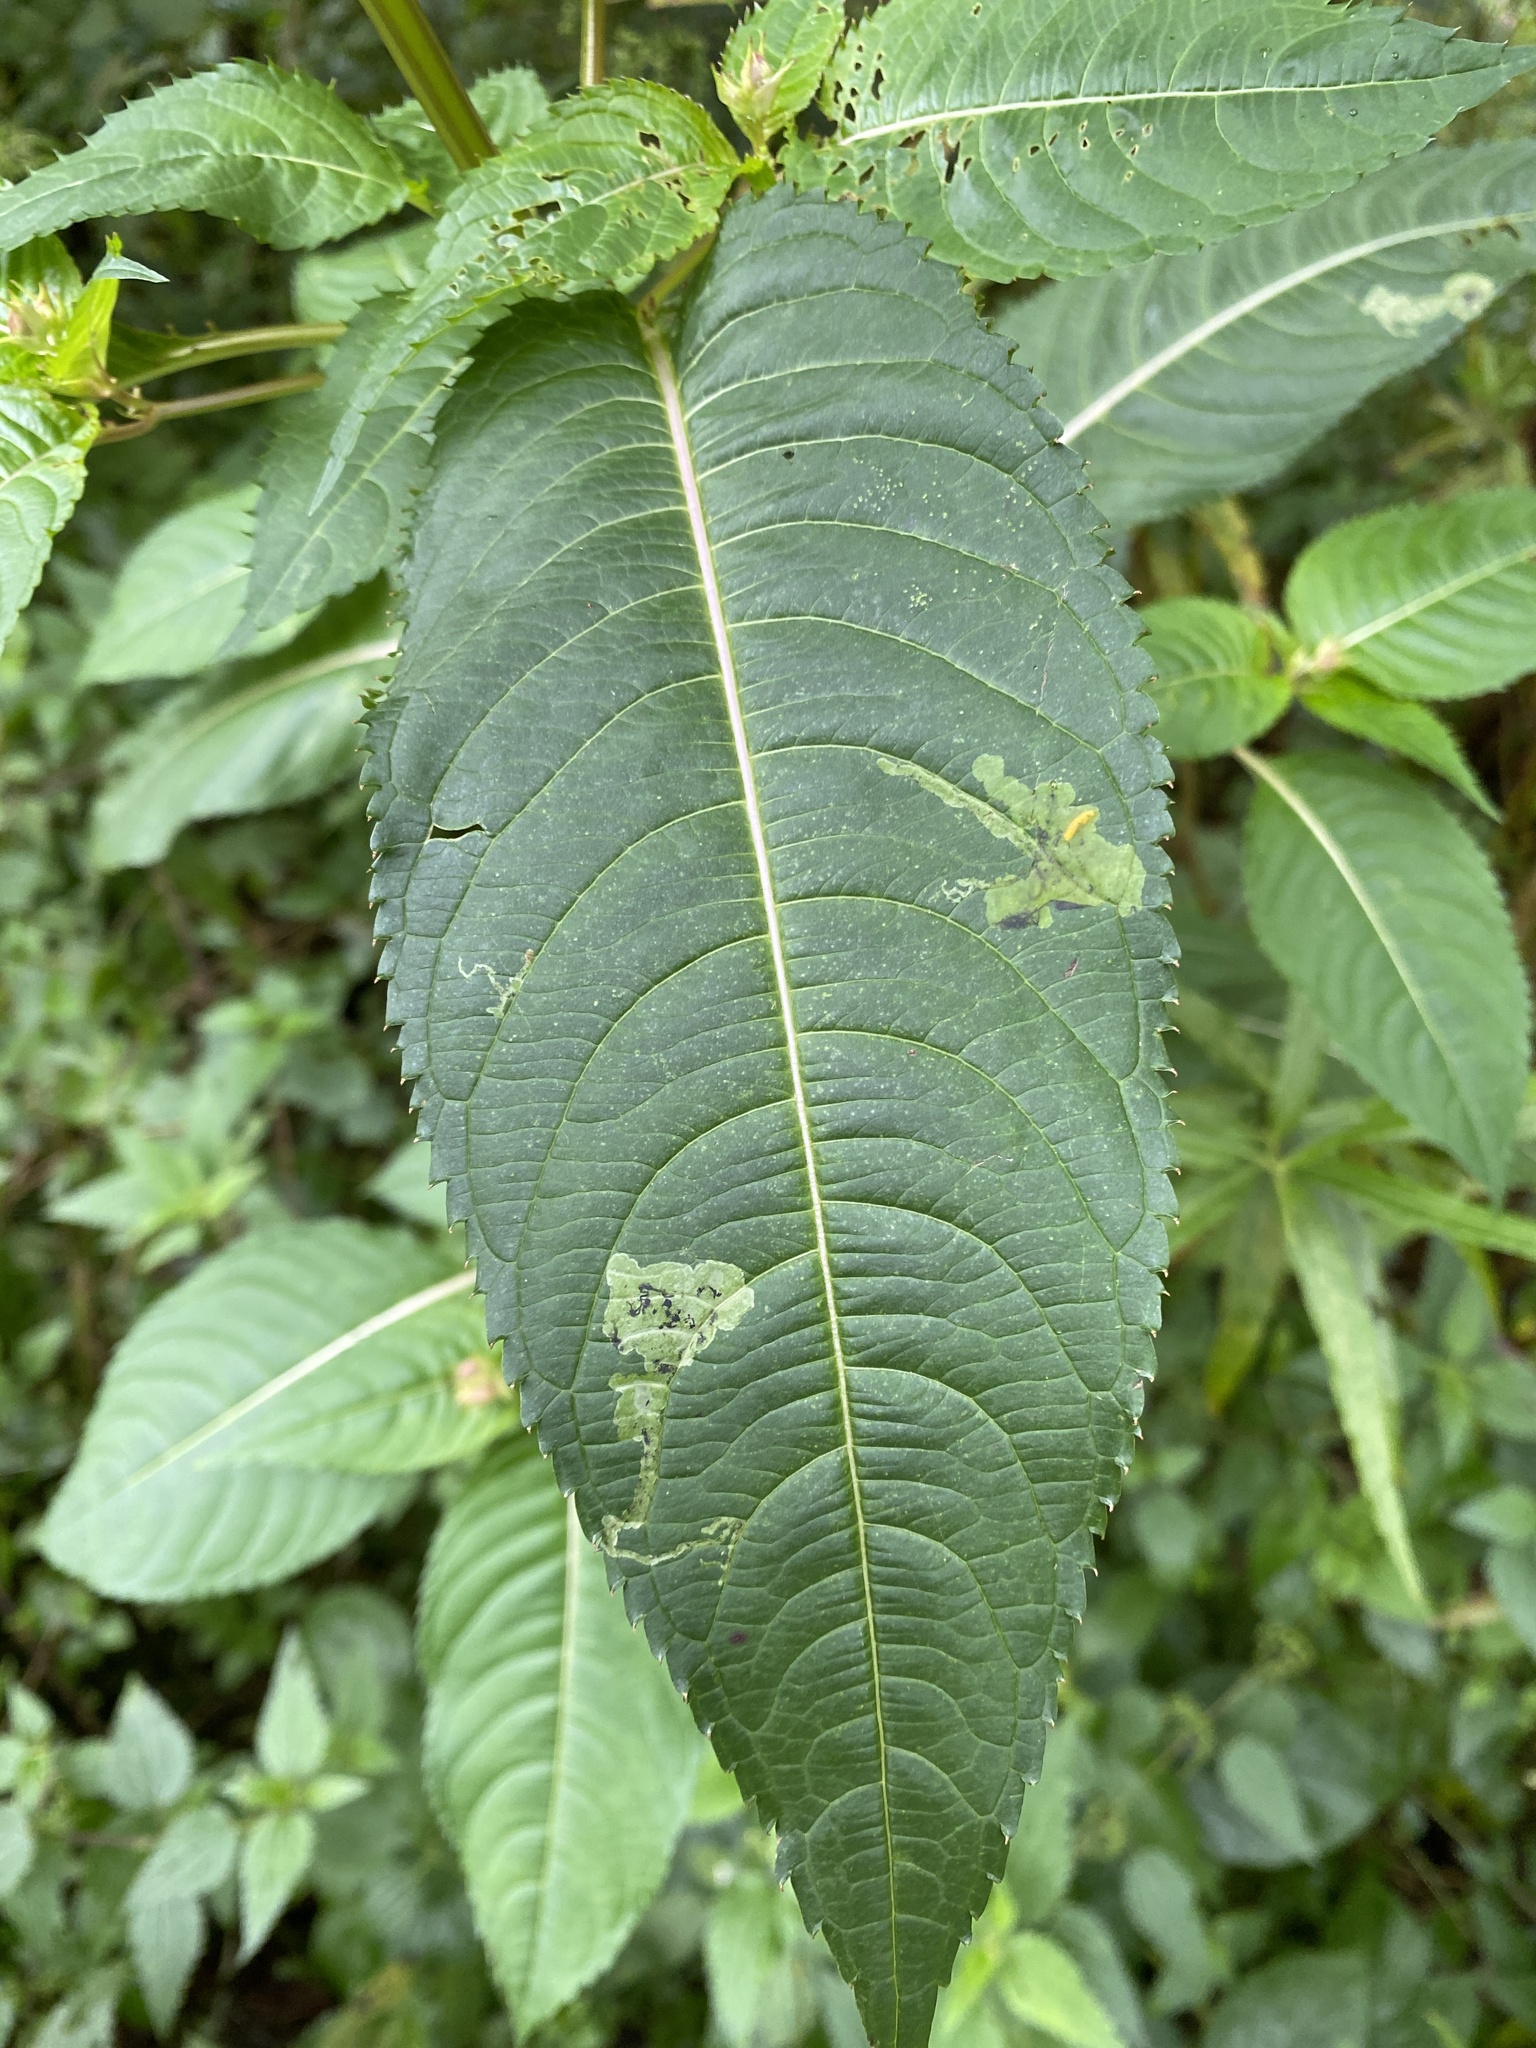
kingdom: Animalia
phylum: Arthropoda
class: Insecta
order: Diptera
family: Agromyzidae
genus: Phytoliriomyza
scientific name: Phytoliriomyza melampyga
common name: Jewelweed leaf-miner fly
